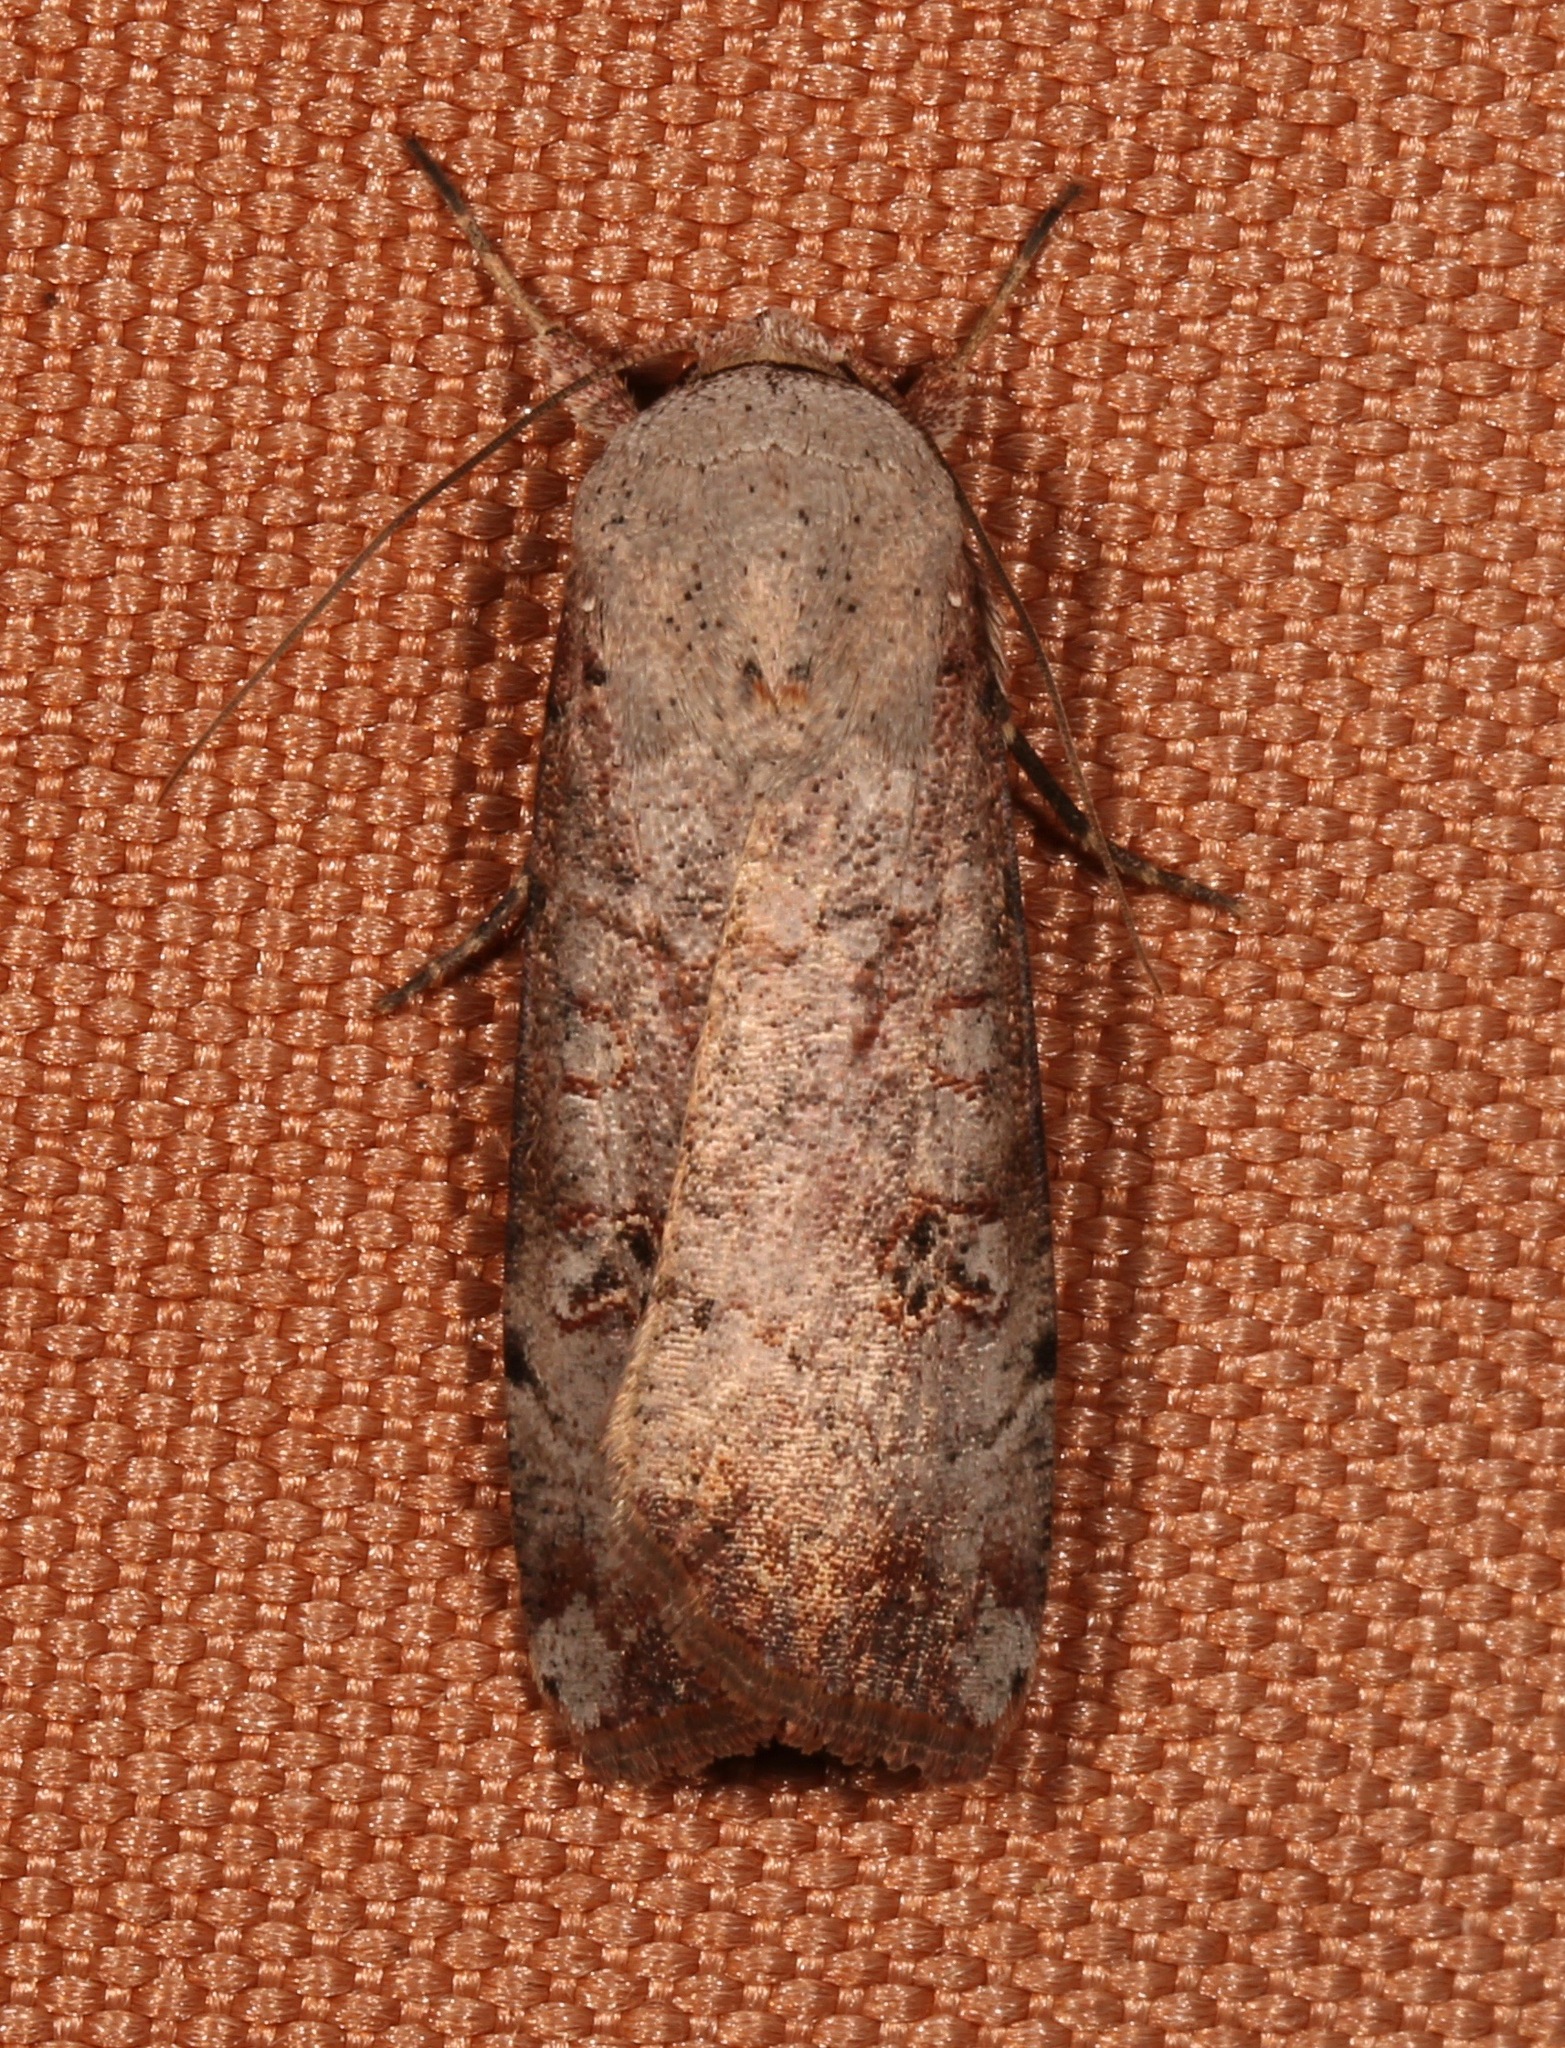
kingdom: Animalia
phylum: Arthropoda
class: Insecta
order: Lepidoptera
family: Noctuidae
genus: Anicla
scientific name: Anicla infecta
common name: Green cutworm
